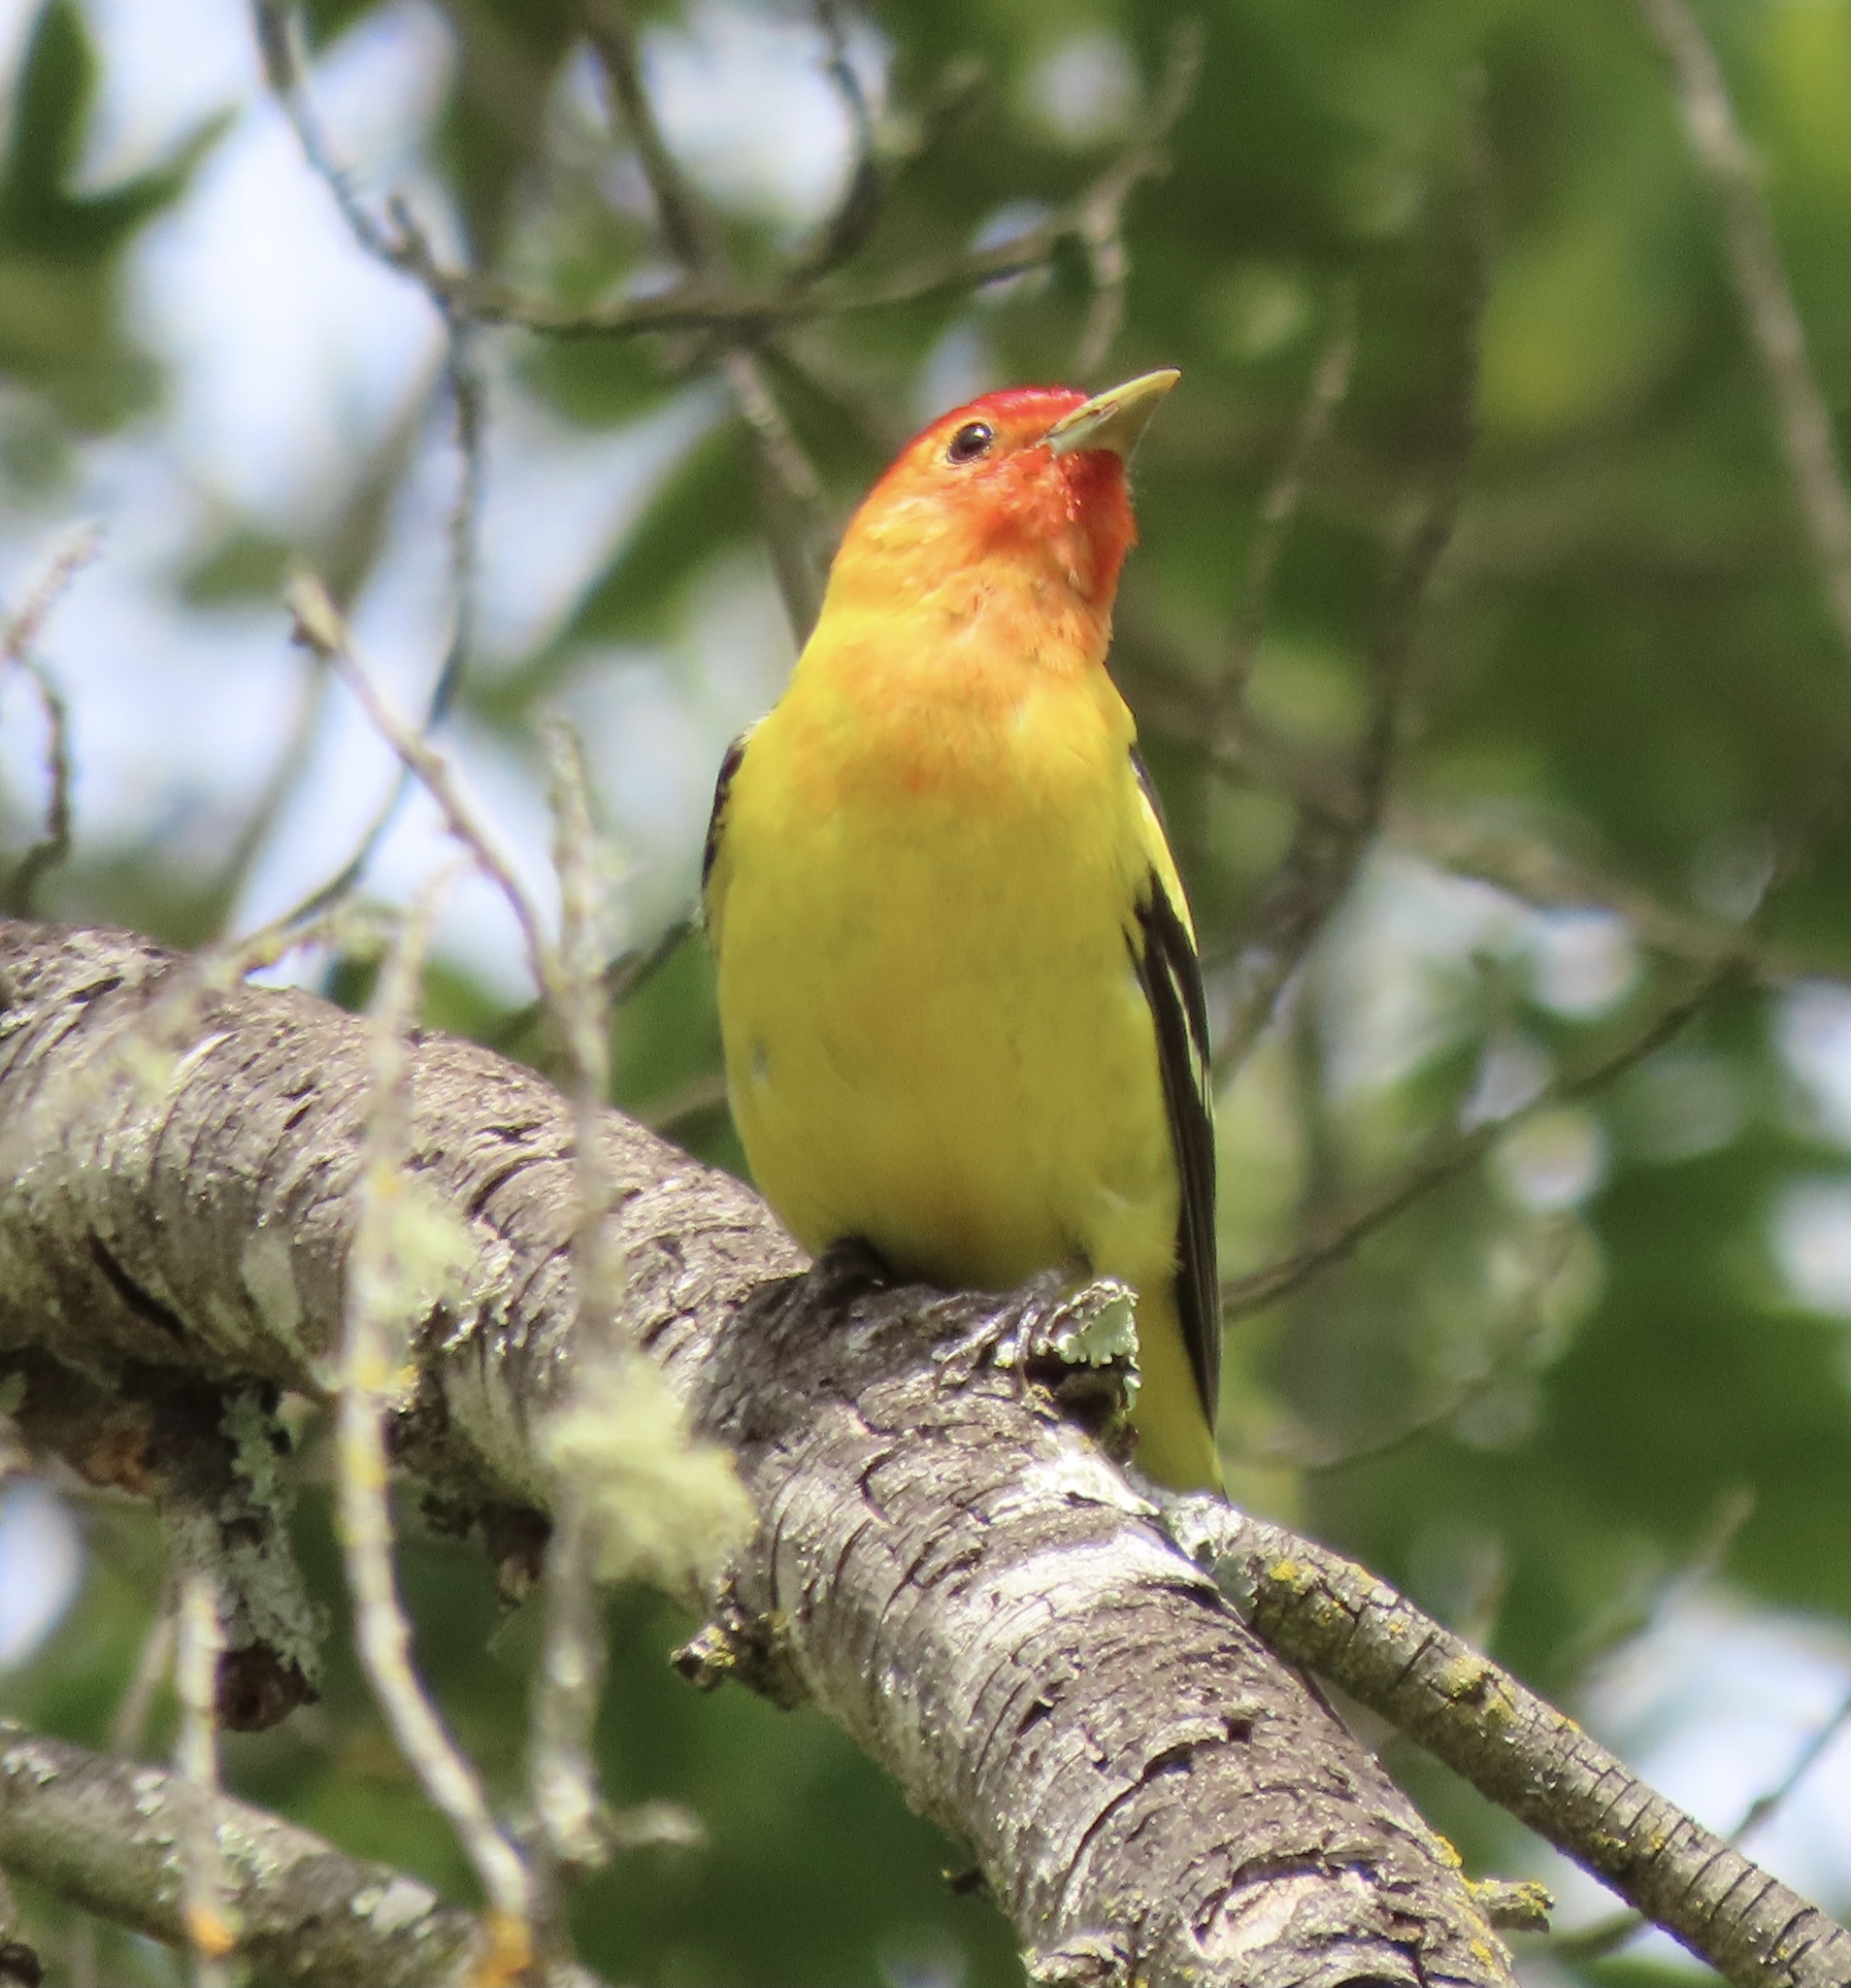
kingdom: Animalia
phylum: Chordata
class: Aves
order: Passeriformes
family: Cardinalidae
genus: Piranga
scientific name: Piranga ludoviciana
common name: Western tanager
